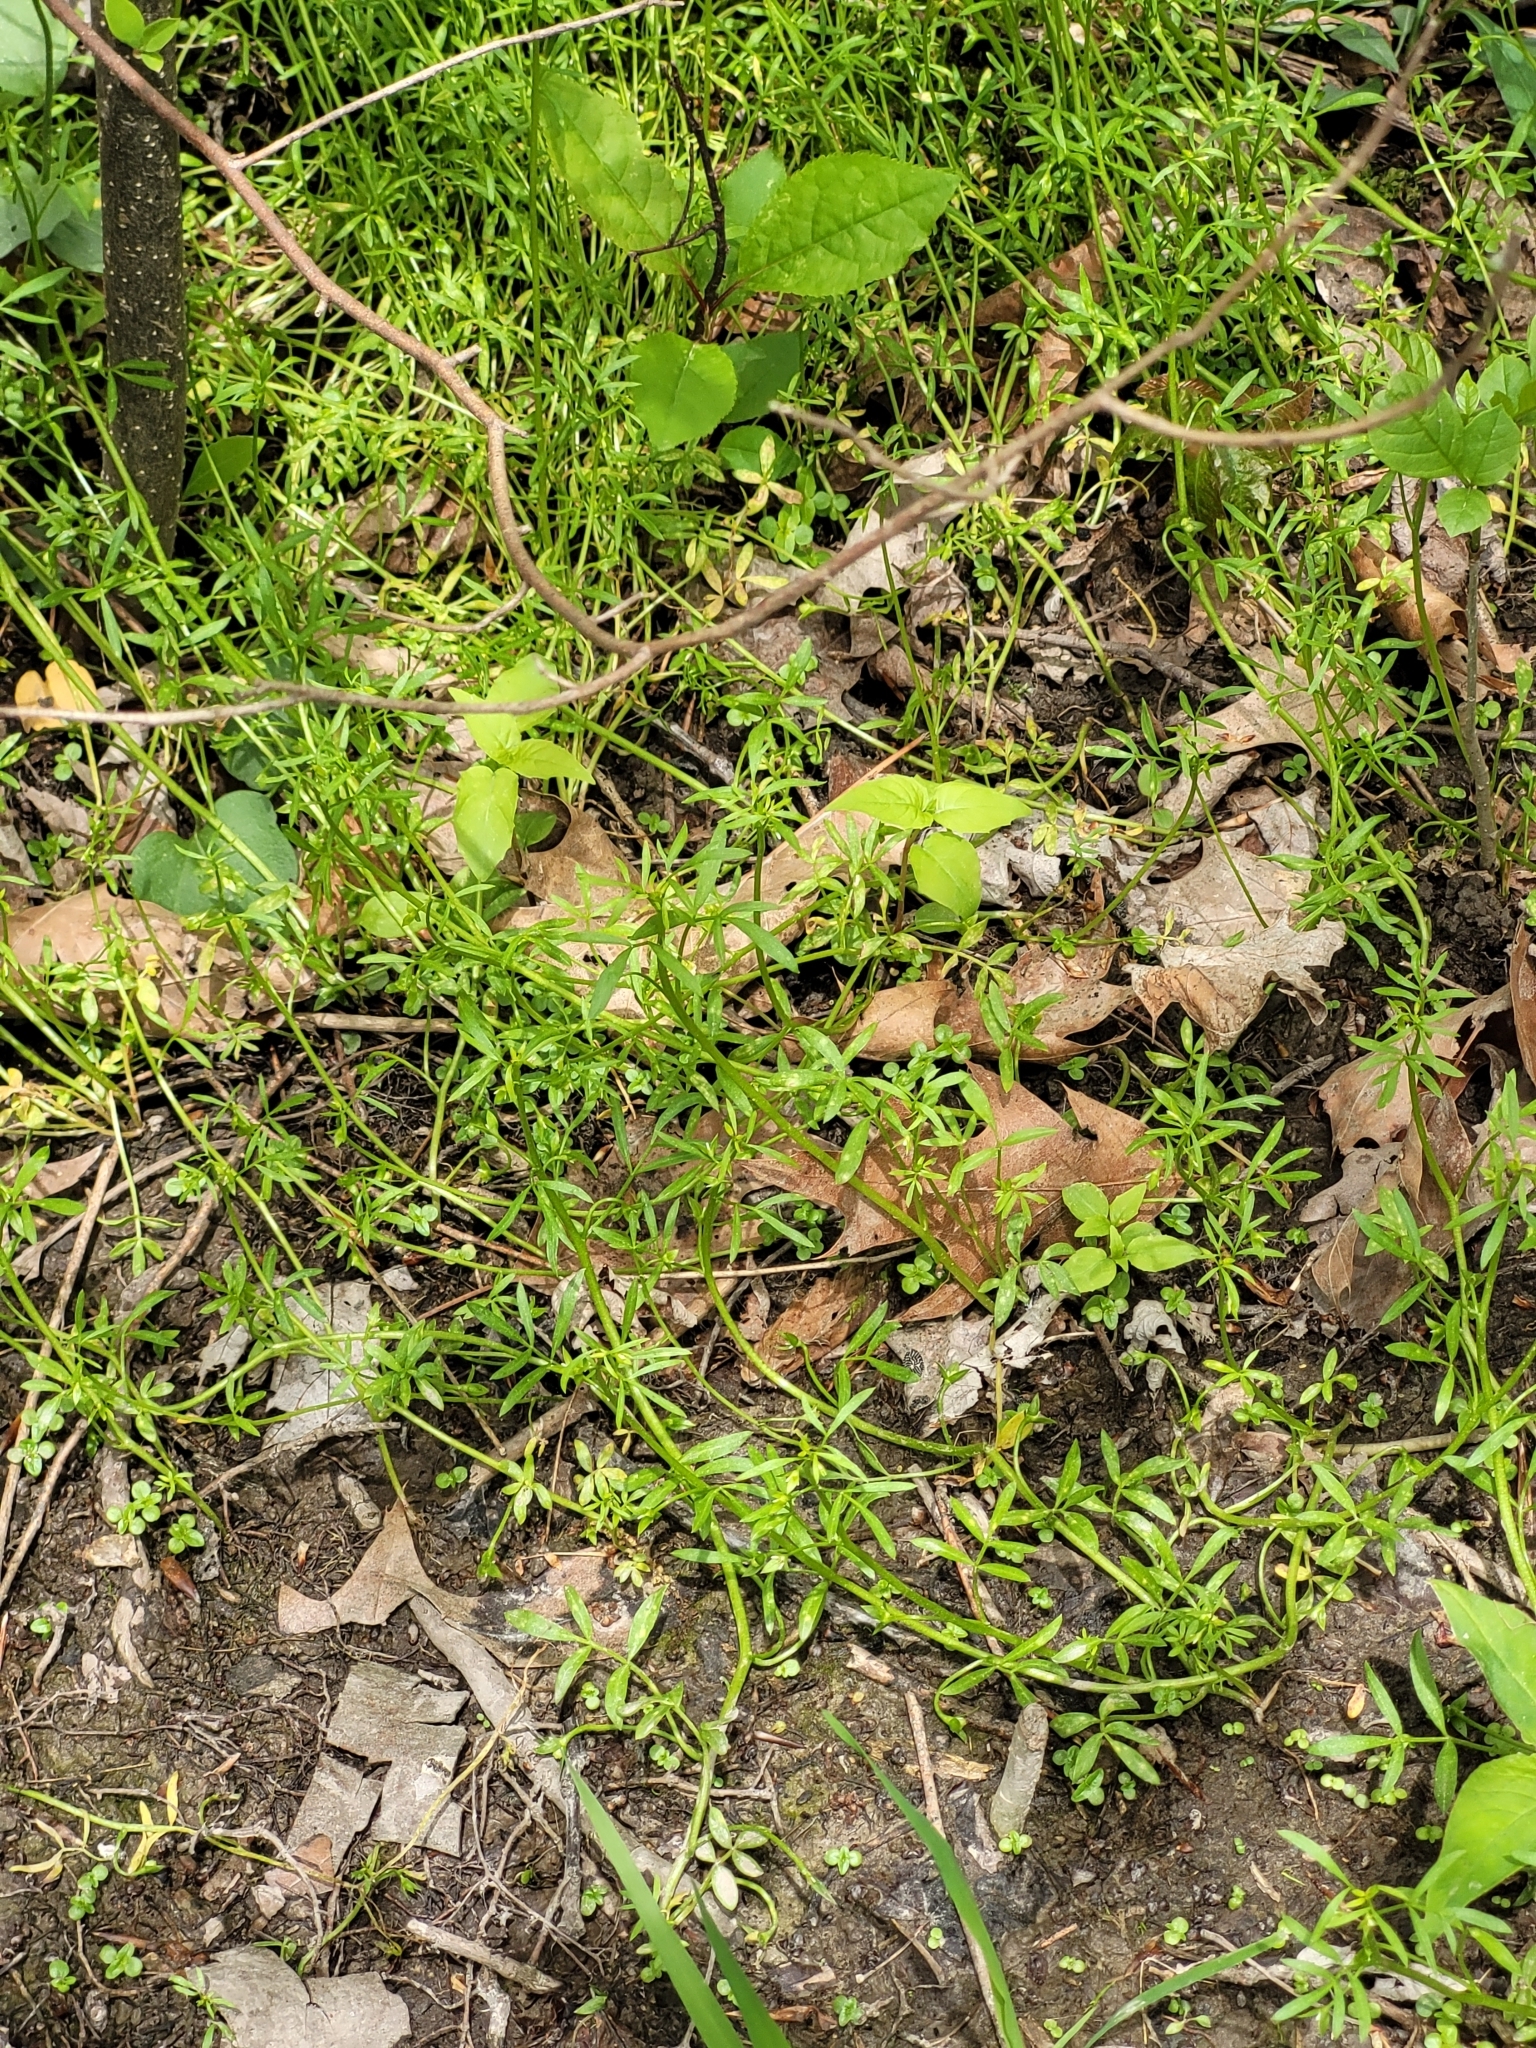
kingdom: Plantae
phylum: Tracheophyta
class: Magnoliopsida
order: Brassicales
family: Limnanthaceae
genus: Floerkea
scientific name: Floerkea proserpinacoides
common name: False mermaid
